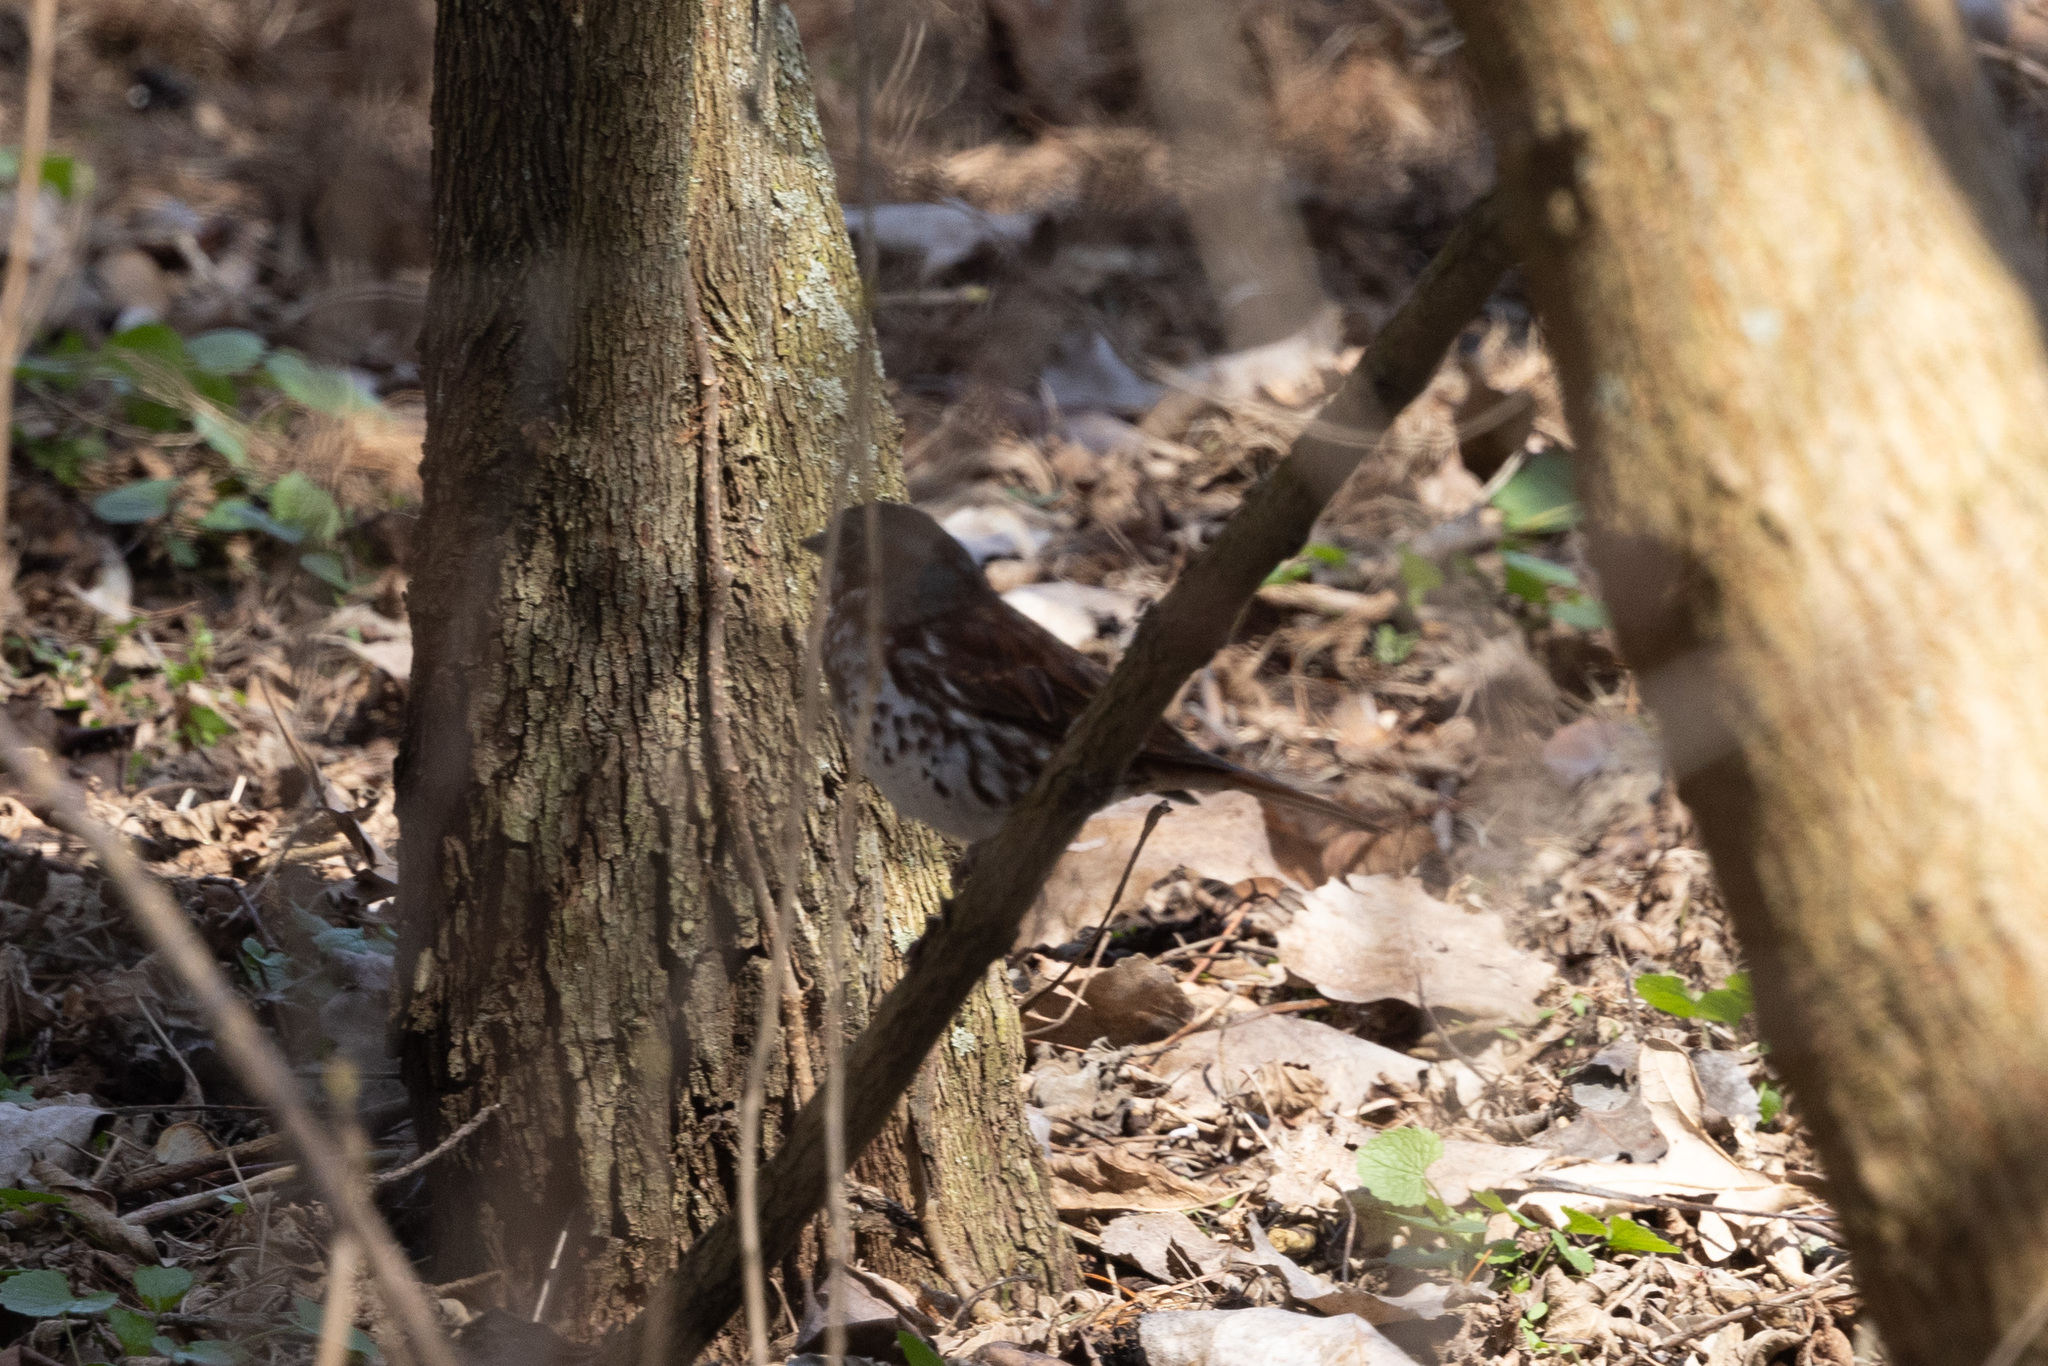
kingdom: Animalia
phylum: Chordata
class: Aves
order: Passeriformes
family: Passerellidae
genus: Passerella
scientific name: Passerella iliaca
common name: Fox sparrow
